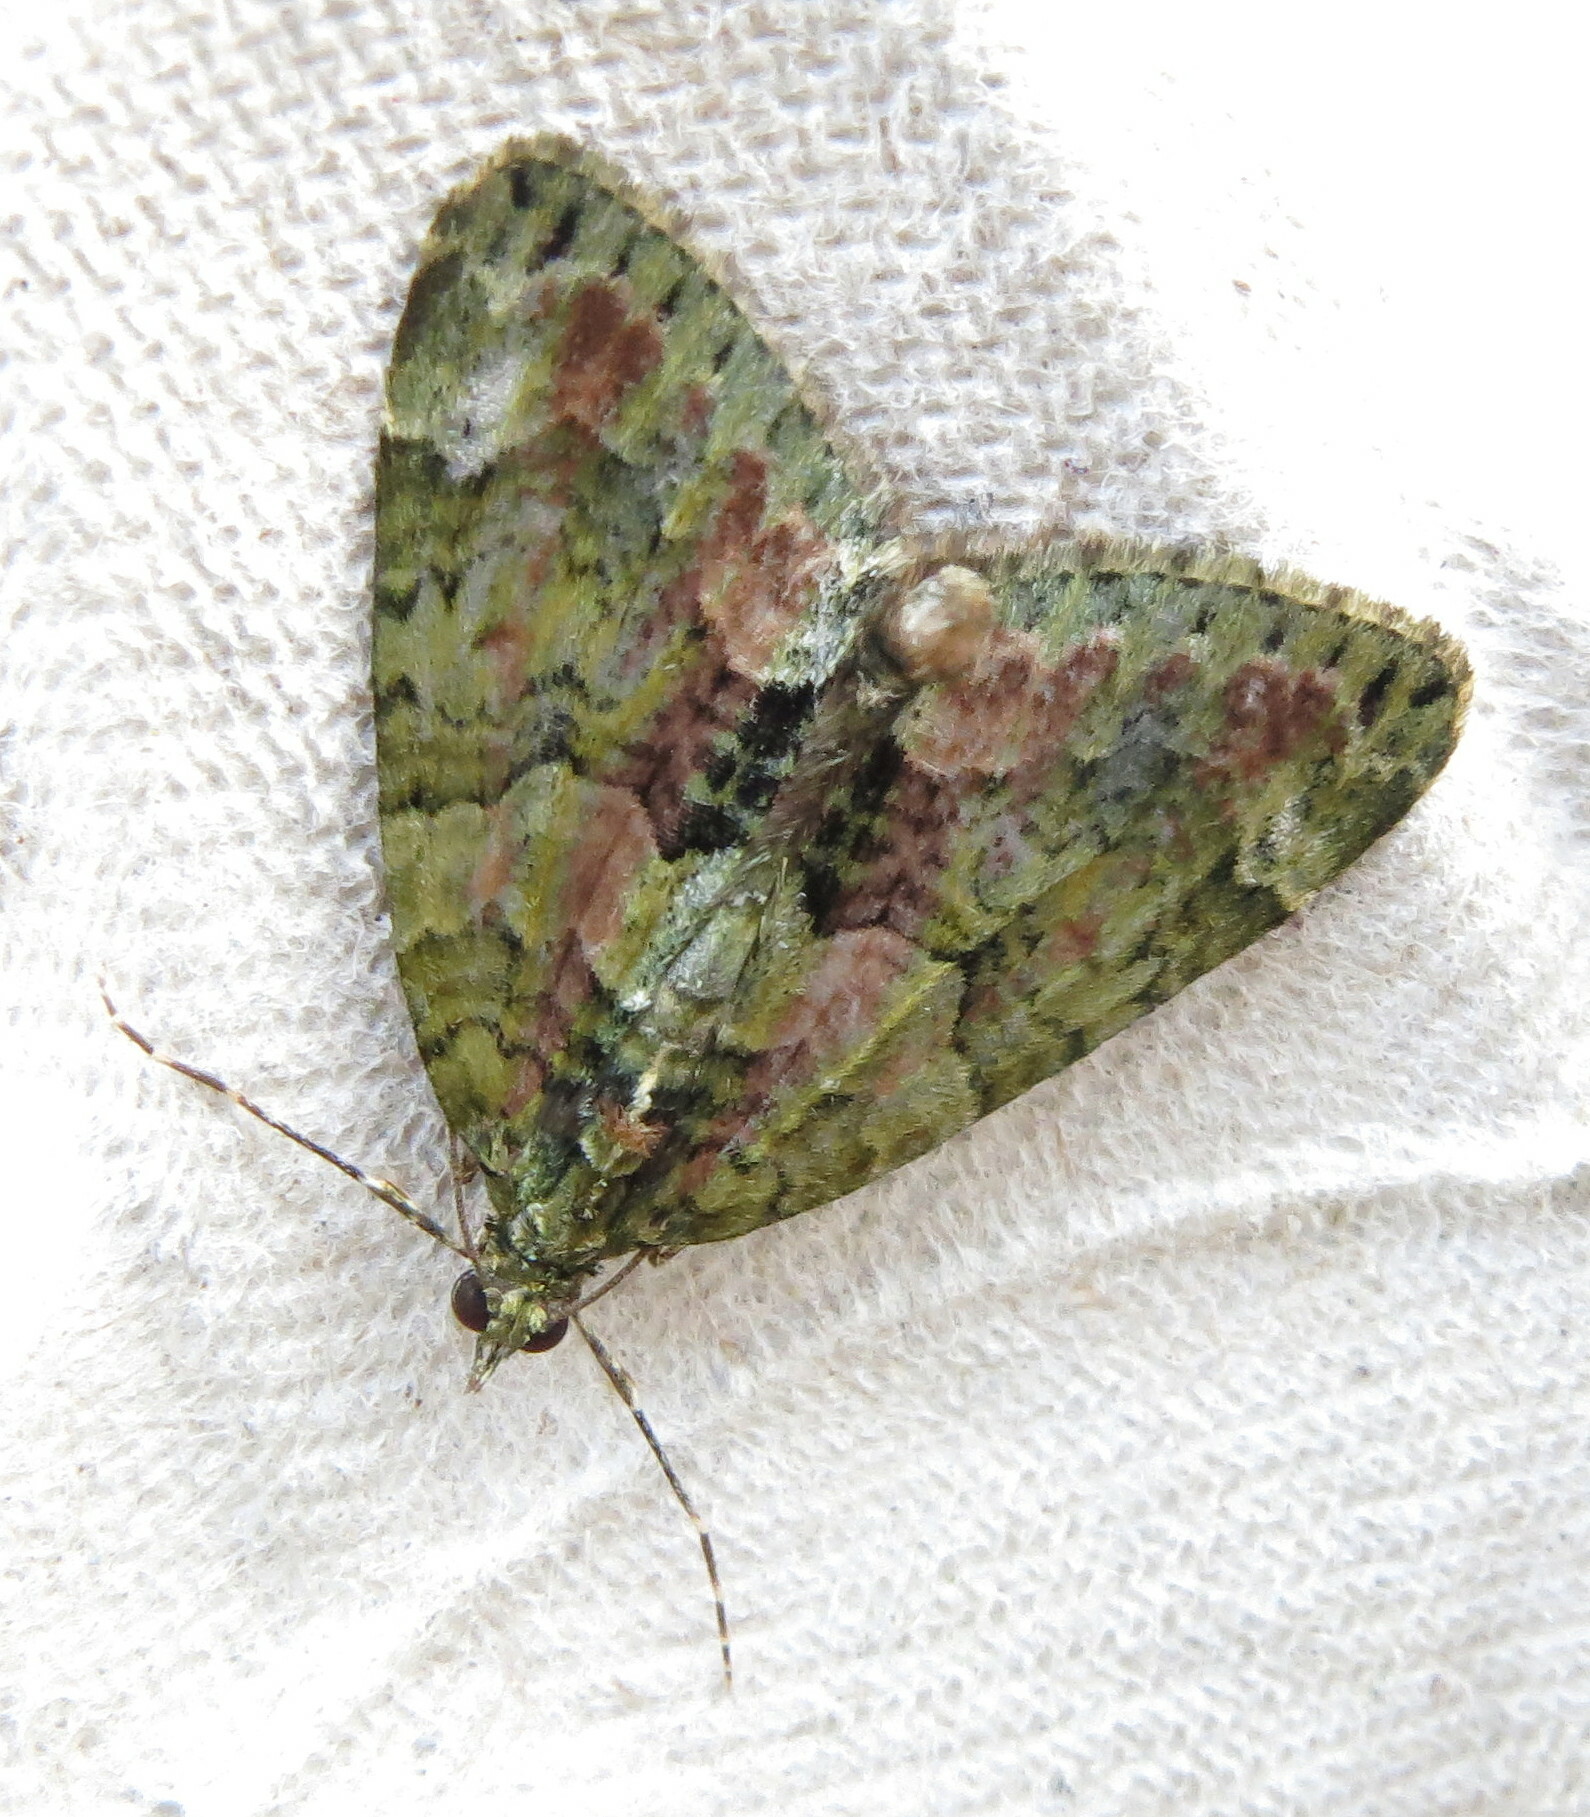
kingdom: Animalia
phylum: Arthropoda
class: Insecta
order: Lepidoptera
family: Geometridae
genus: Chloroclysta
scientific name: Chloroclysta siterata
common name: Red-green carpet
